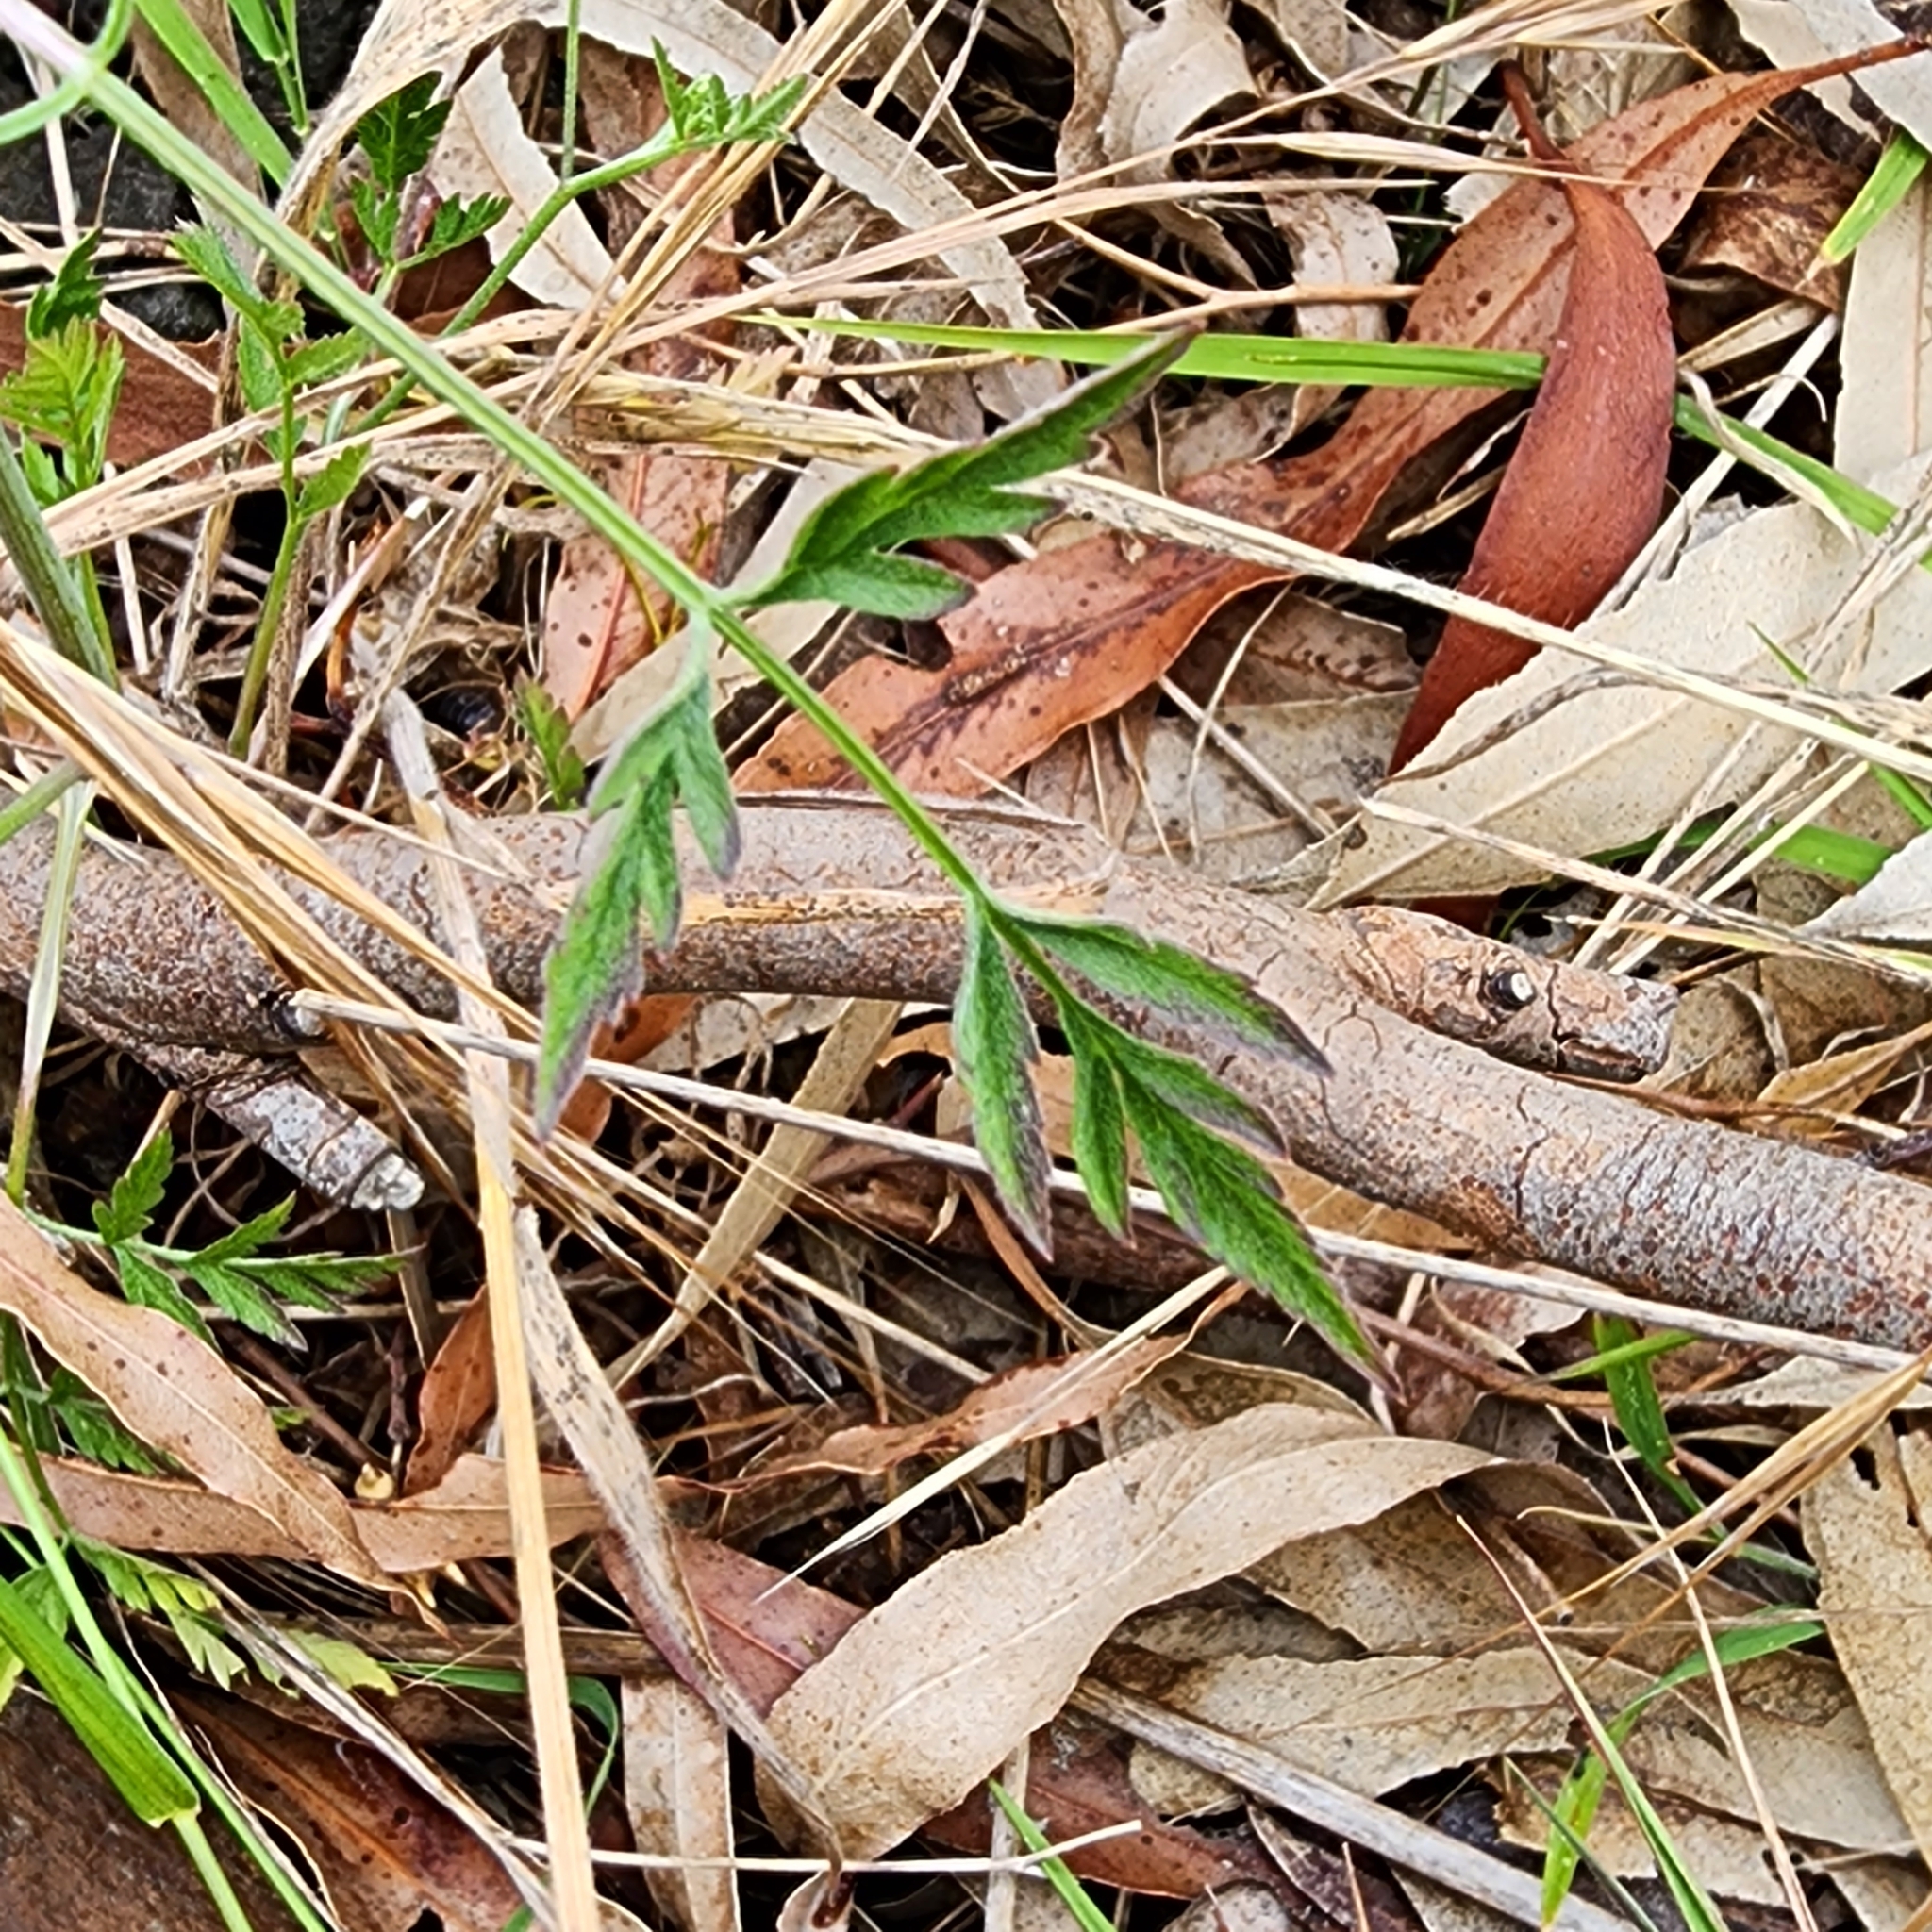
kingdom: Plantae
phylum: Tracheophyta
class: Magnoliopsida
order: Apiales
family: Apiaceae
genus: Torilis
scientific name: Torilis arvensis
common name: Spreading hedge-parsley
